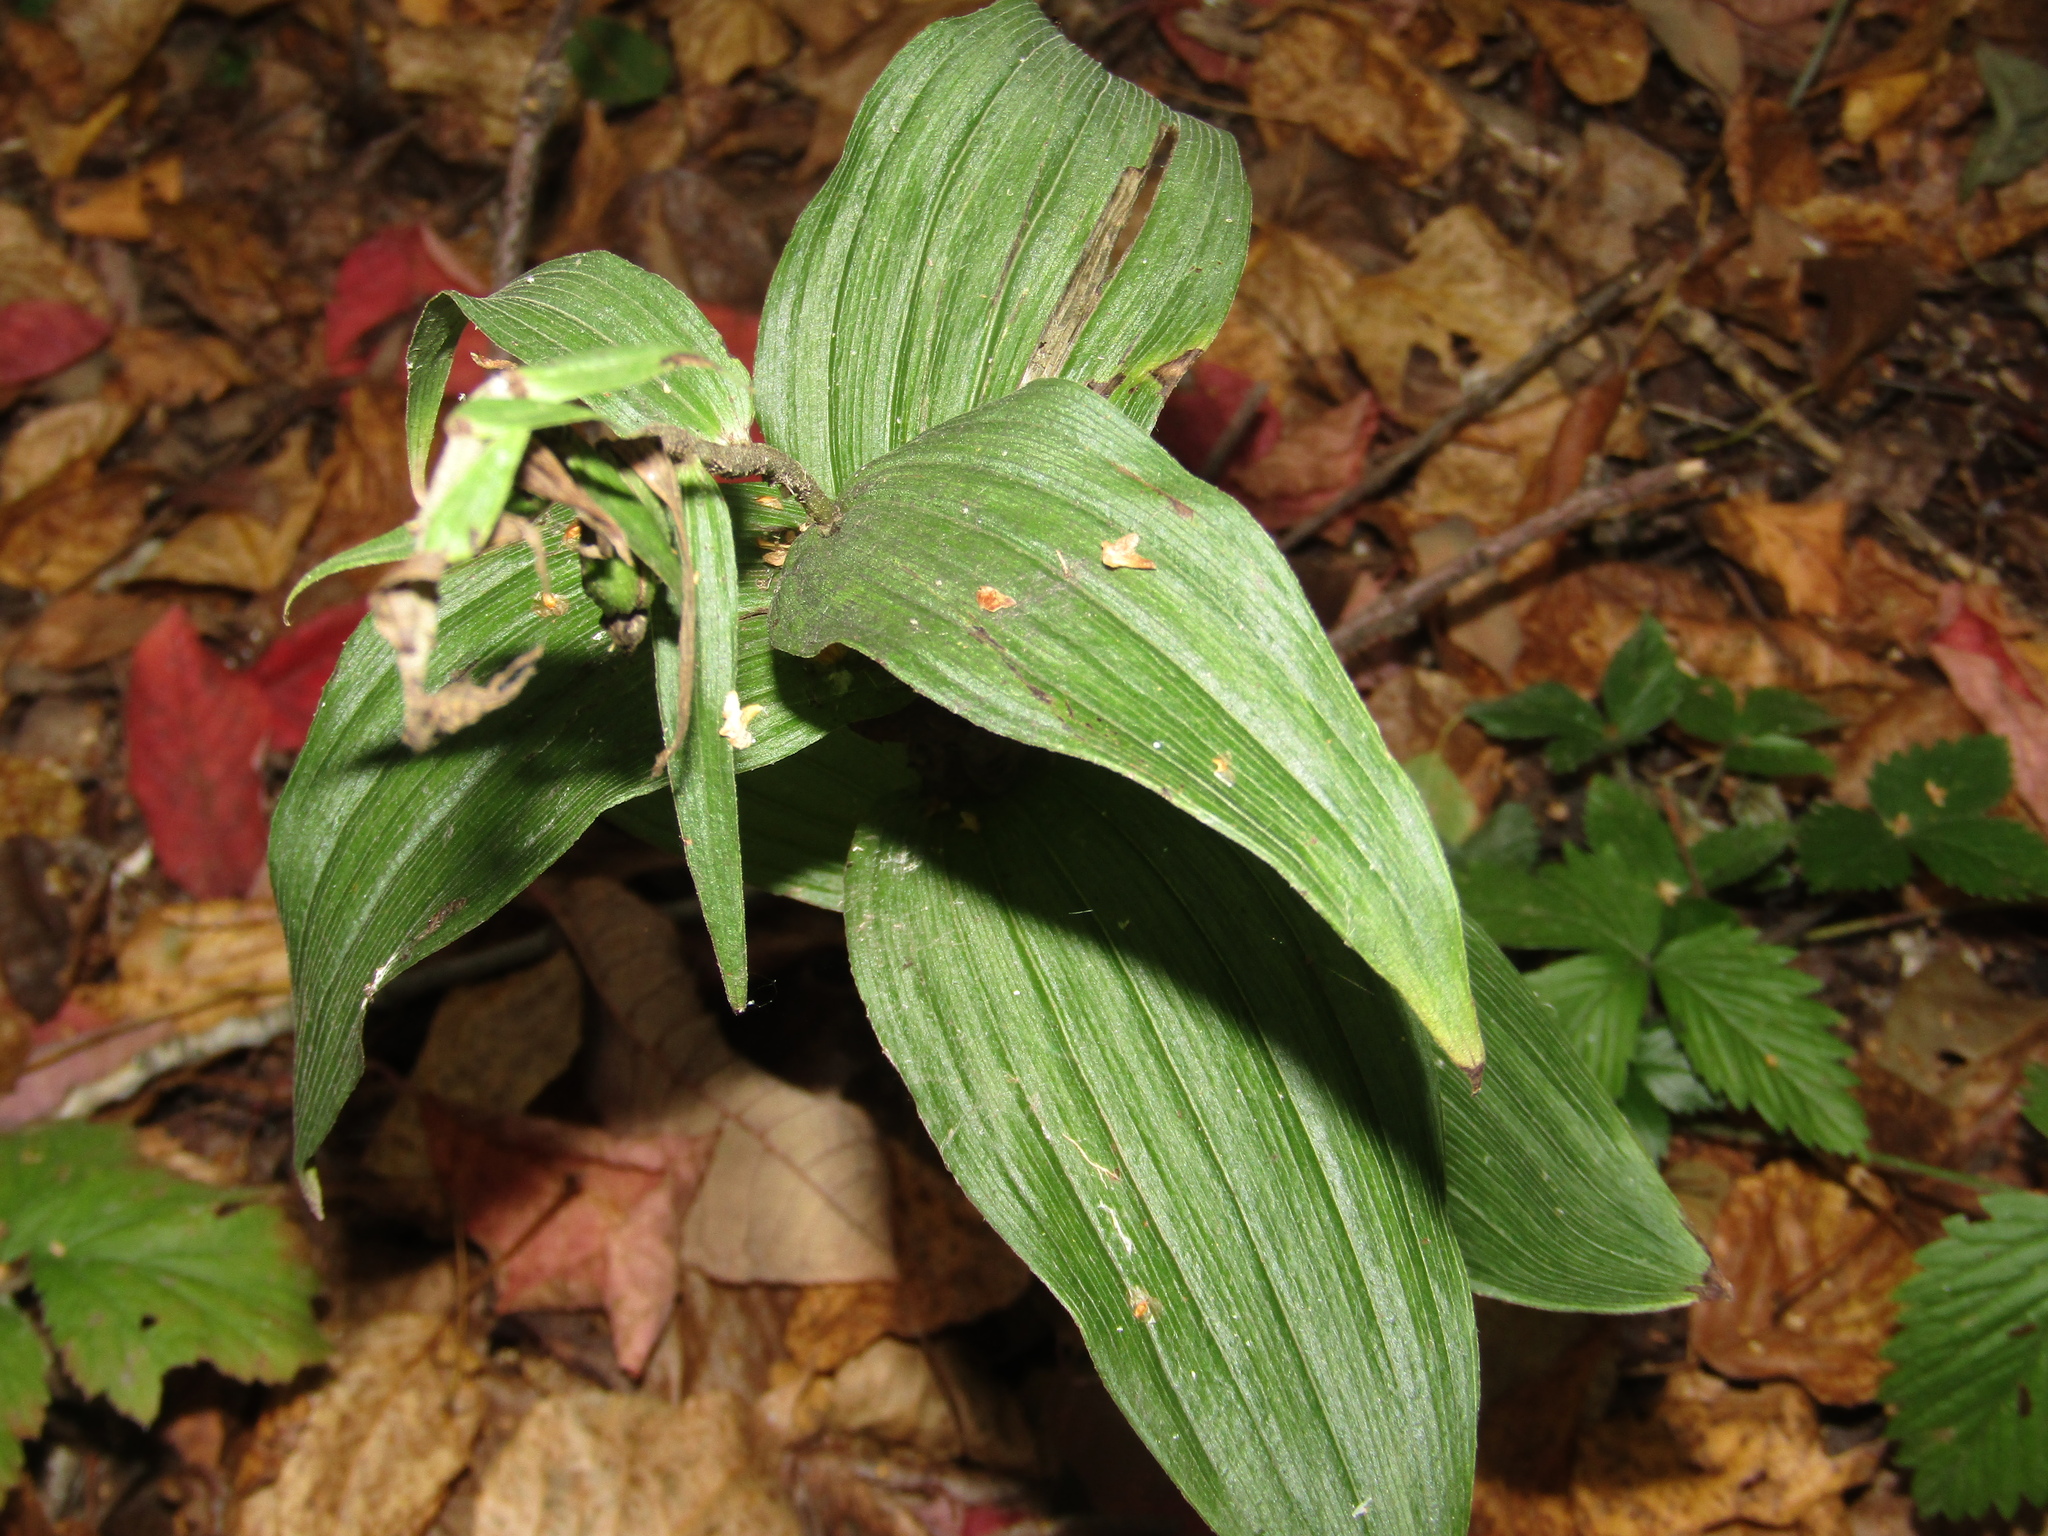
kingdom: Plantae
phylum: Tracheophyta
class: Liliopsida
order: Asparagales
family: Orchidaceae
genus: Epipactis
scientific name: Epipactis helleborine
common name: Broad-leaved helleborine
